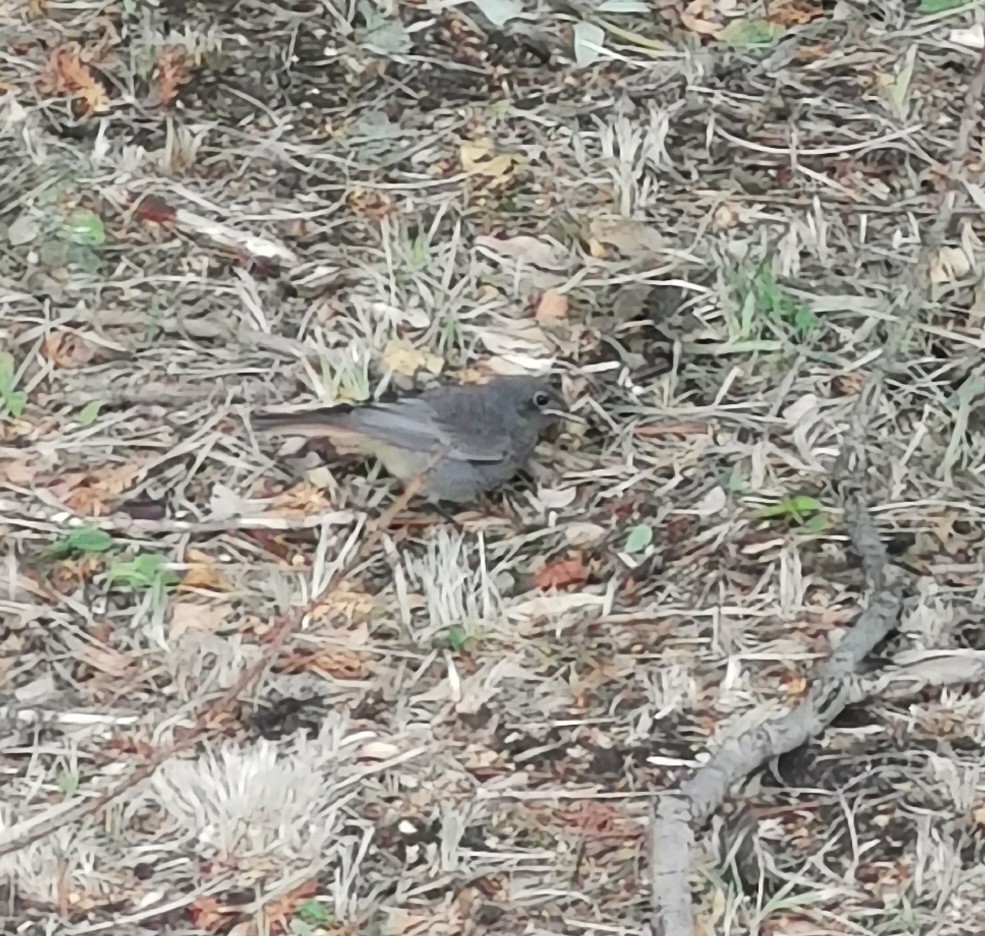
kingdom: Animalia
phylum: Chordata
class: Aves
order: Passeriformes
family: Muscicapidae
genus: Phoenicurus
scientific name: Phoenicurus ochruros
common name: Black redstart
